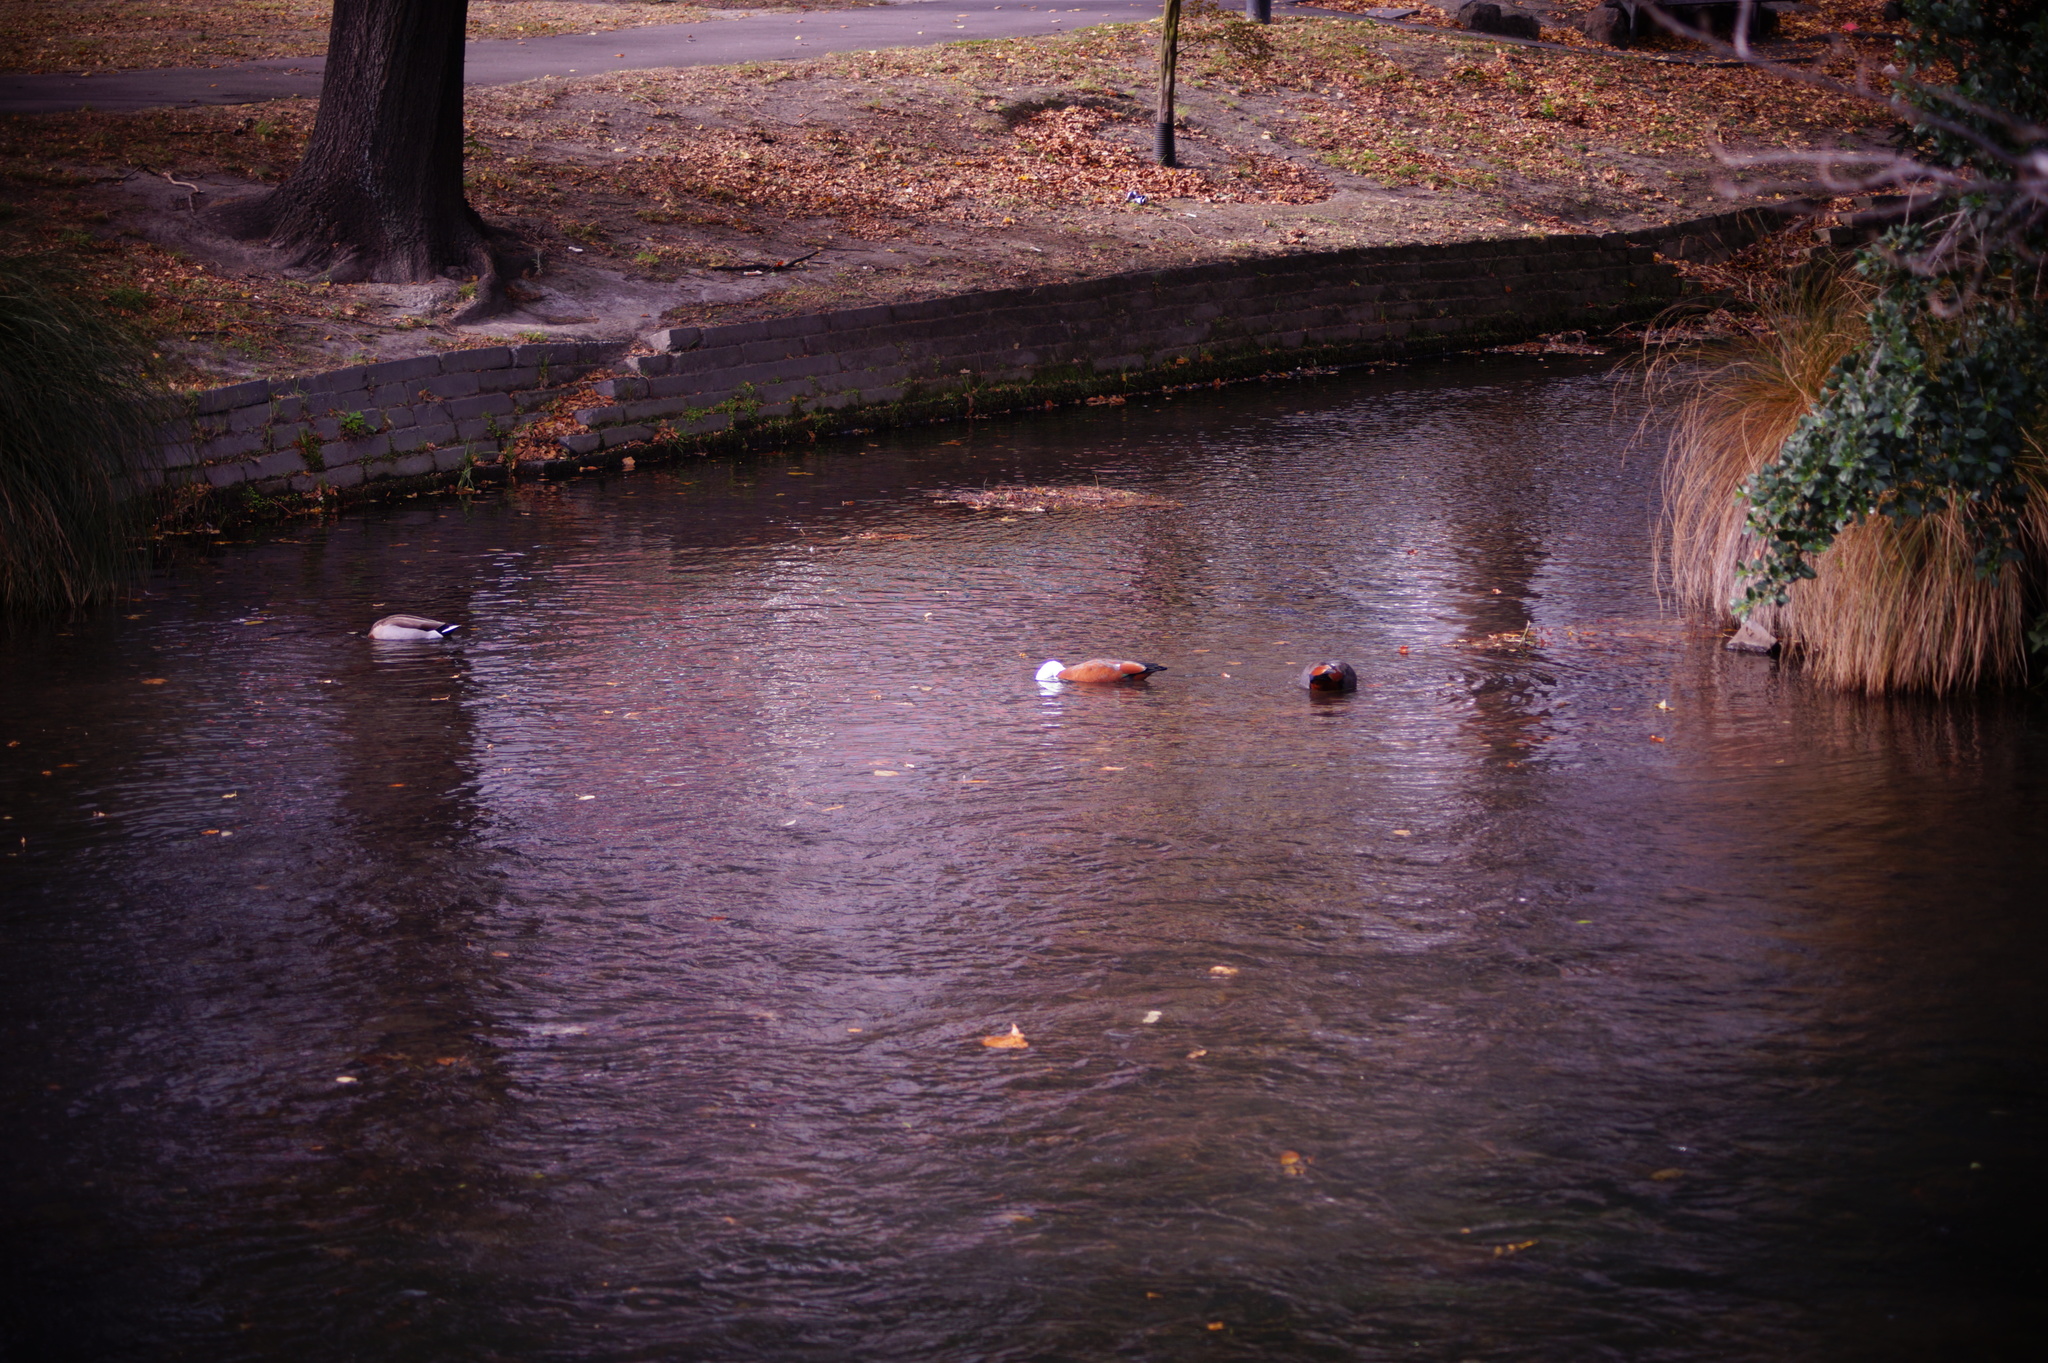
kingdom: Animalia
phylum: Chordata
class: Aves
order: Anseriformes
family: Anatidae
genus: Tadorna
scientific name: Tadorna variegata
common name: Paradise shelduck
